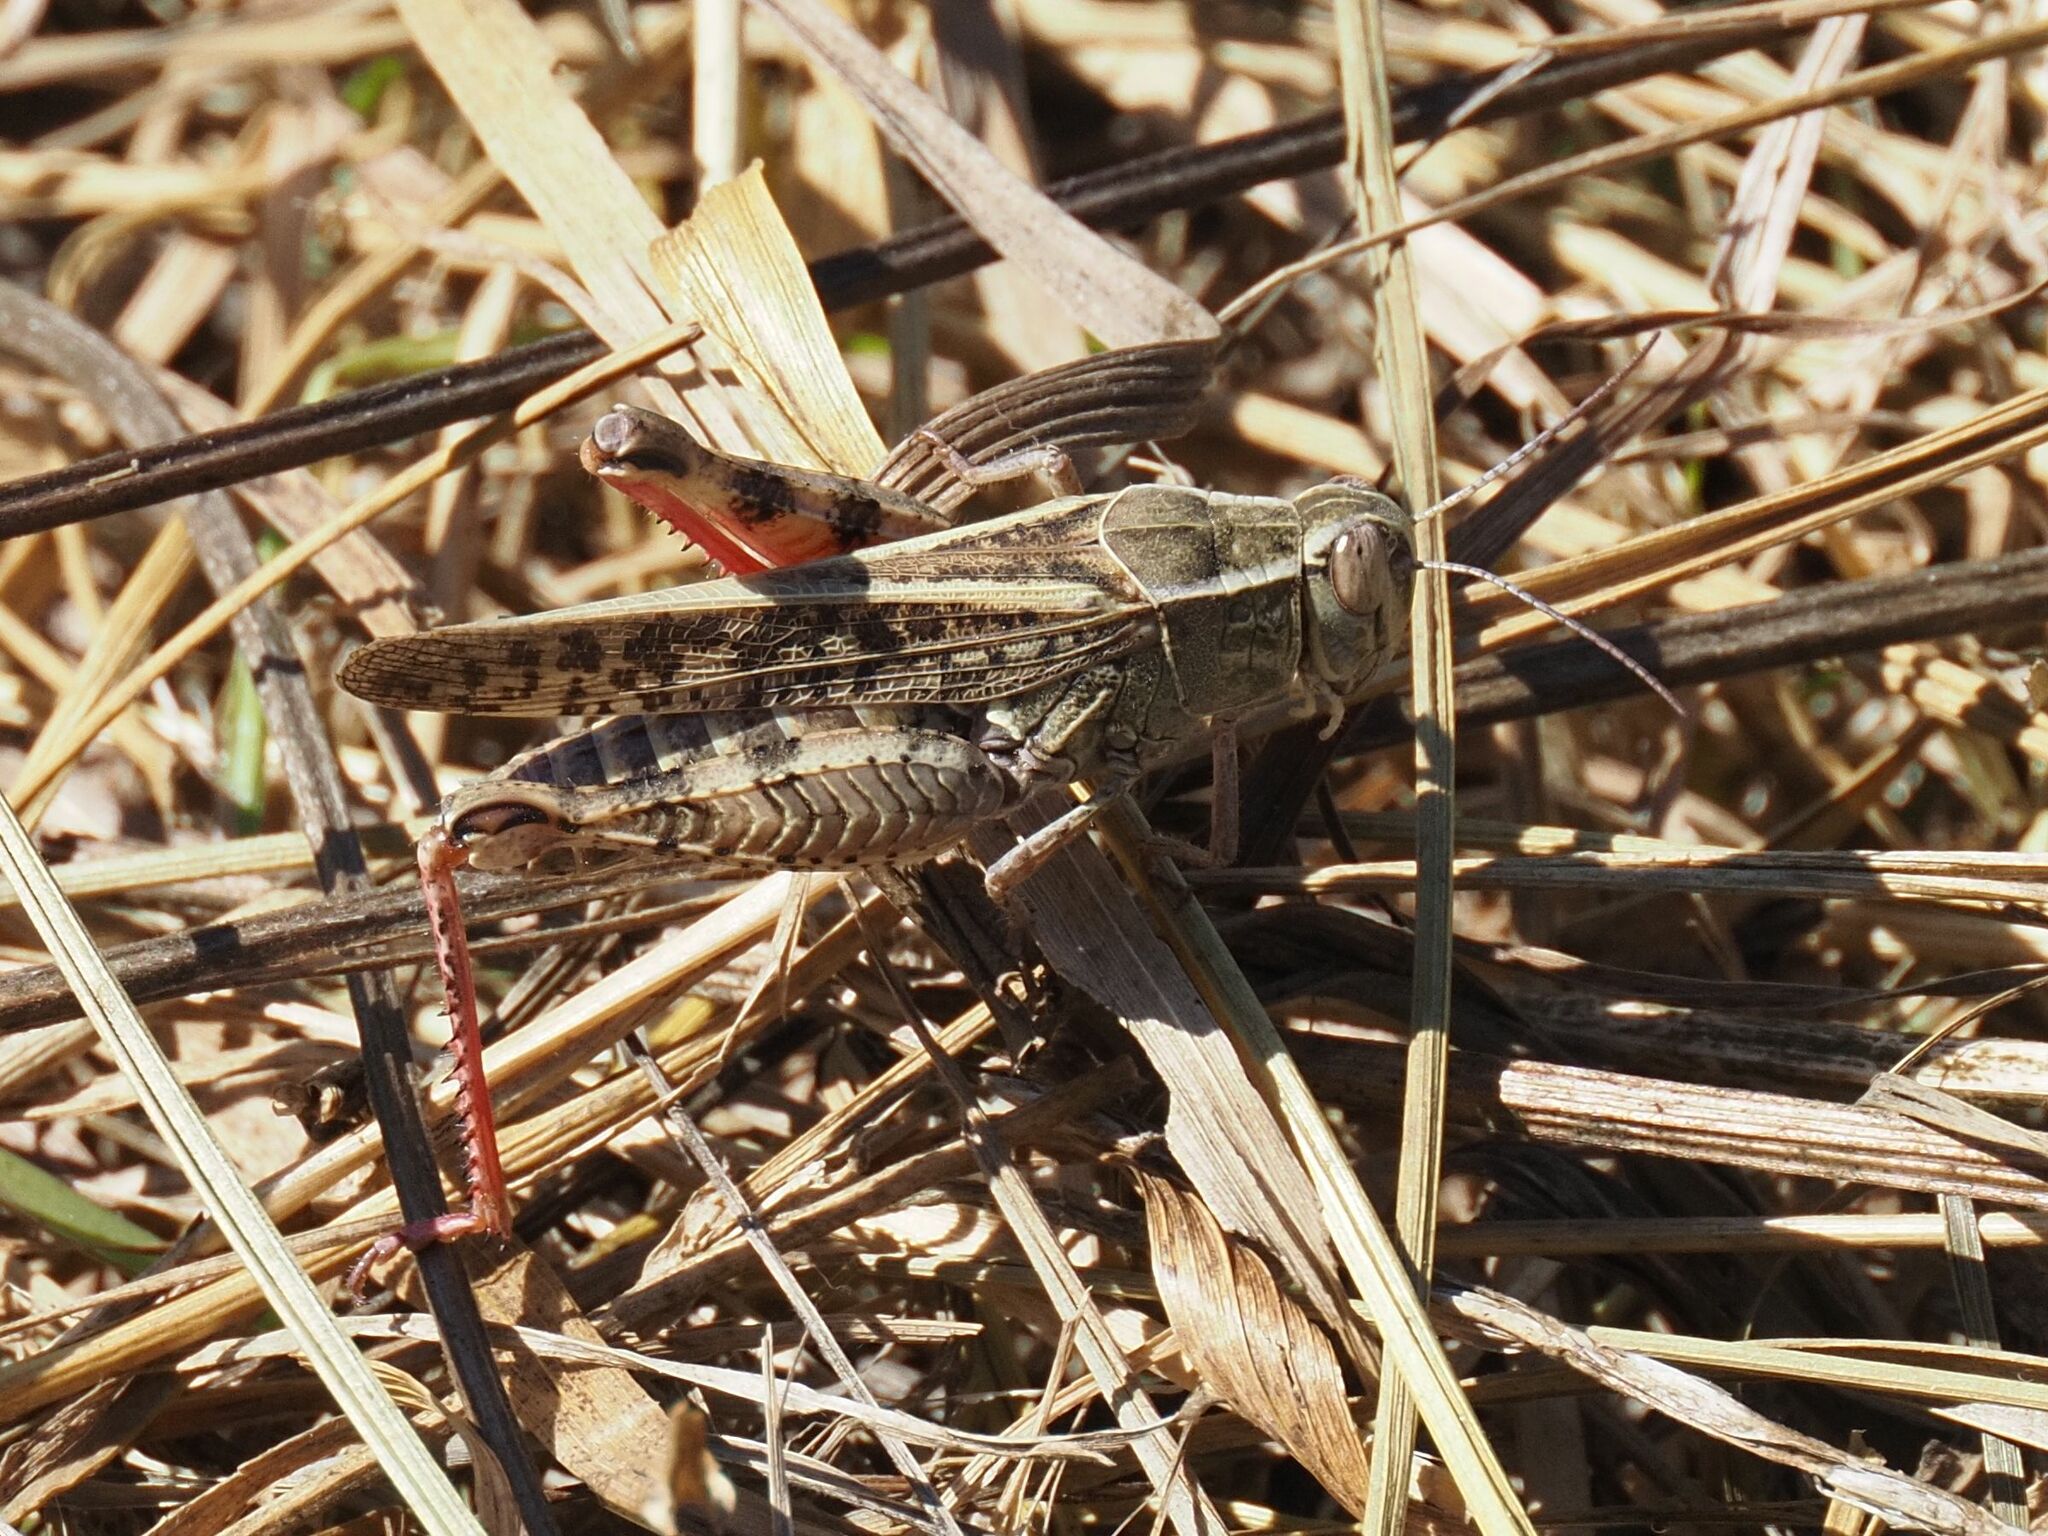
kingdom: Animalia
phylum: Arthropoda
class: Insecta
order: Orthoptera
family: Acrididae
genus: Calliptamus
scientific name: Calliptamus italicus
